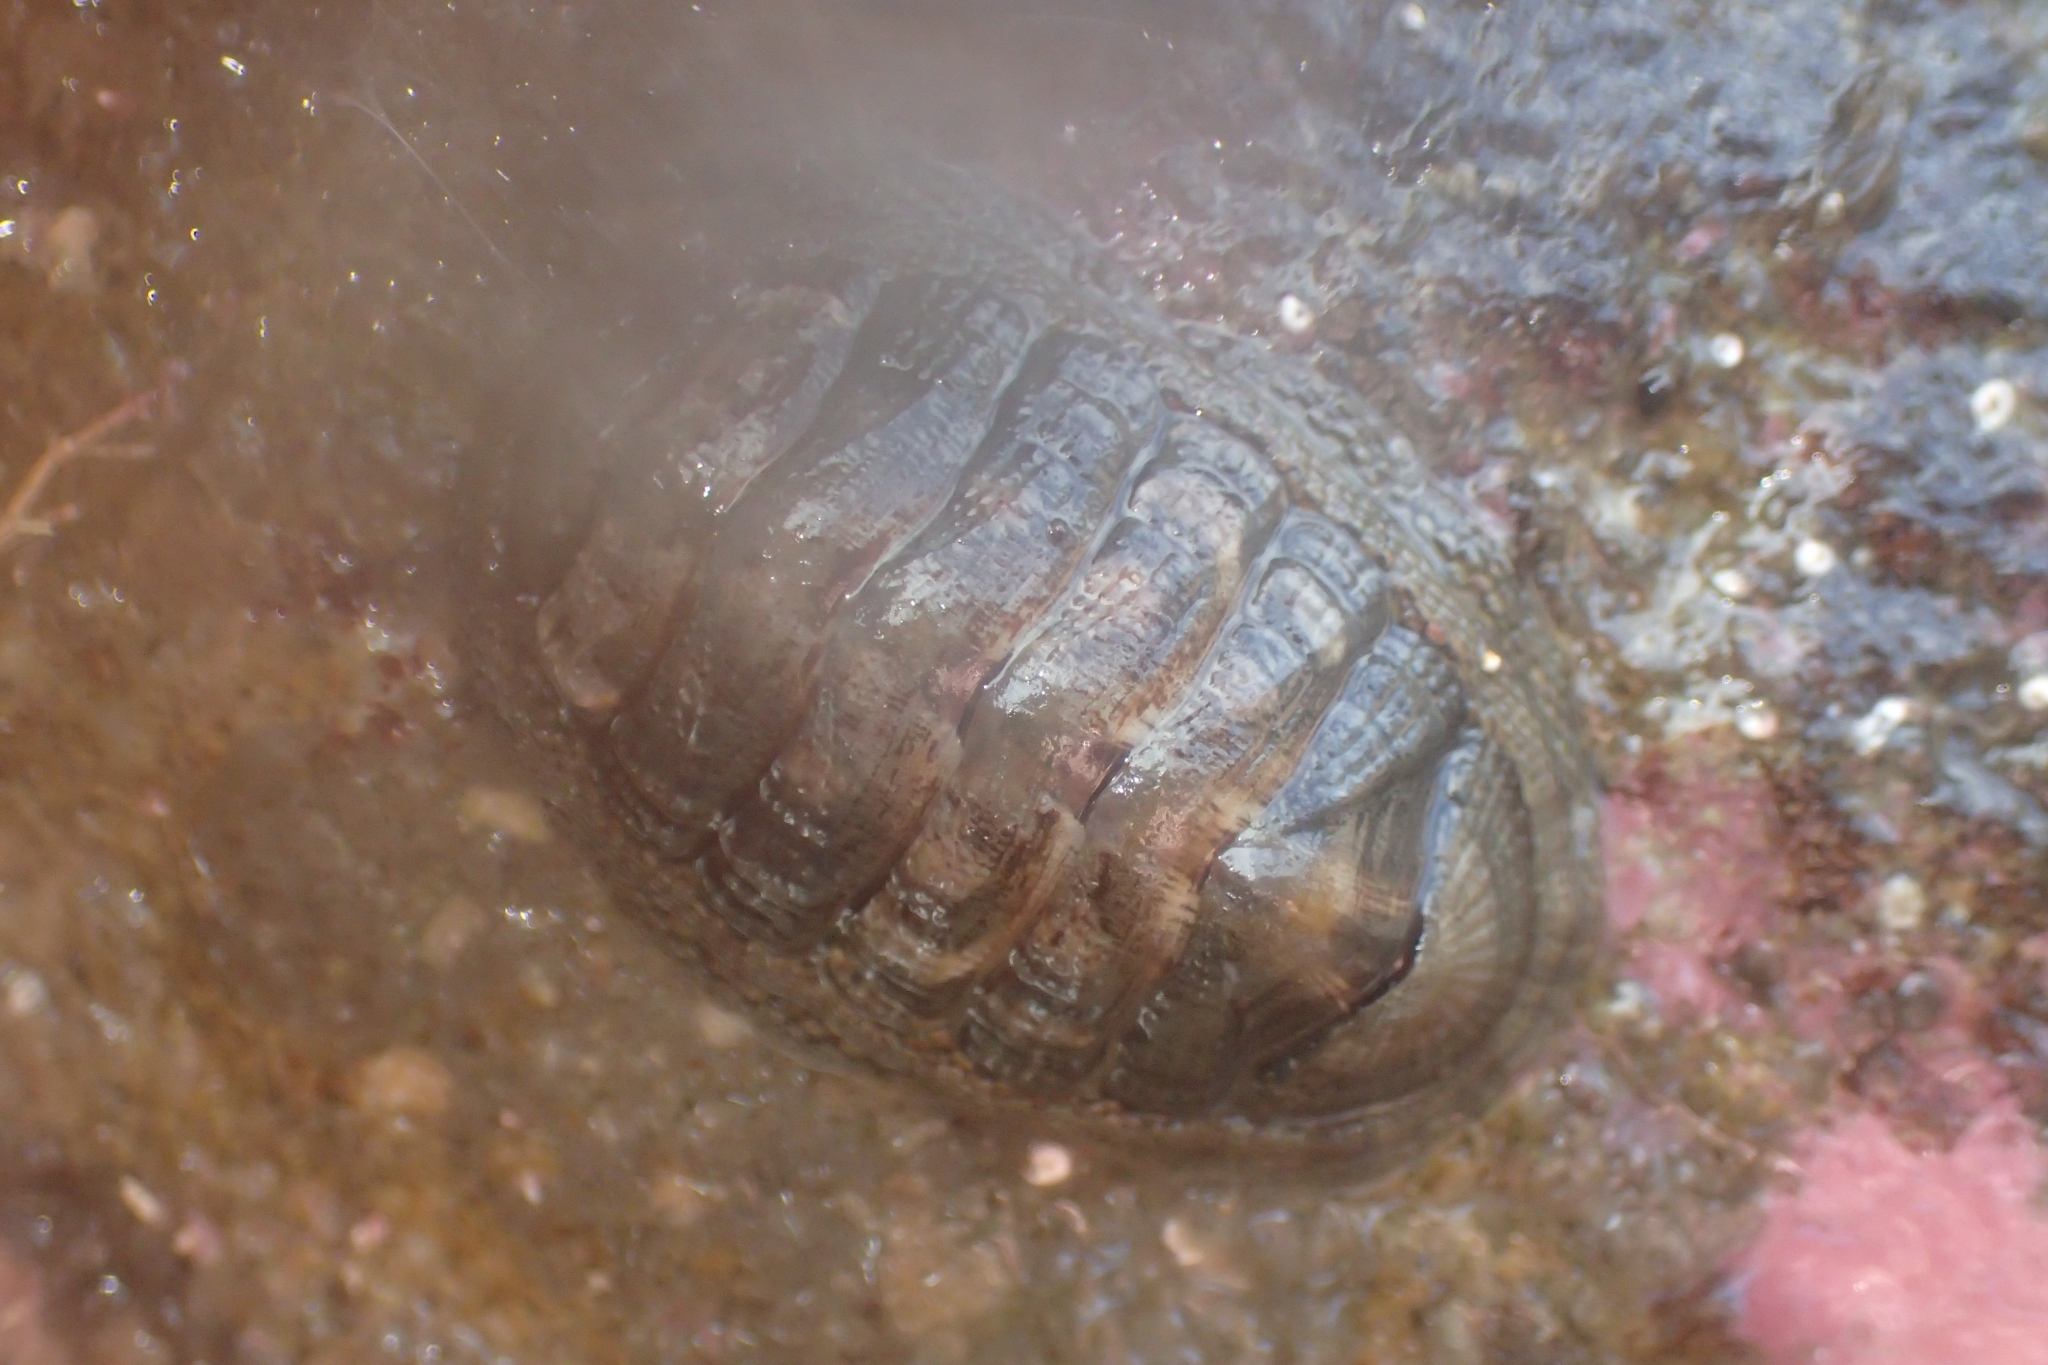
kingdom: Animalia
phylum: Mollusca
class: Polyplacophora
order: Chitonida
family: Chitonidae
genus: Sypharochiton
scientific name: Sypharochiton pelliserpentis
